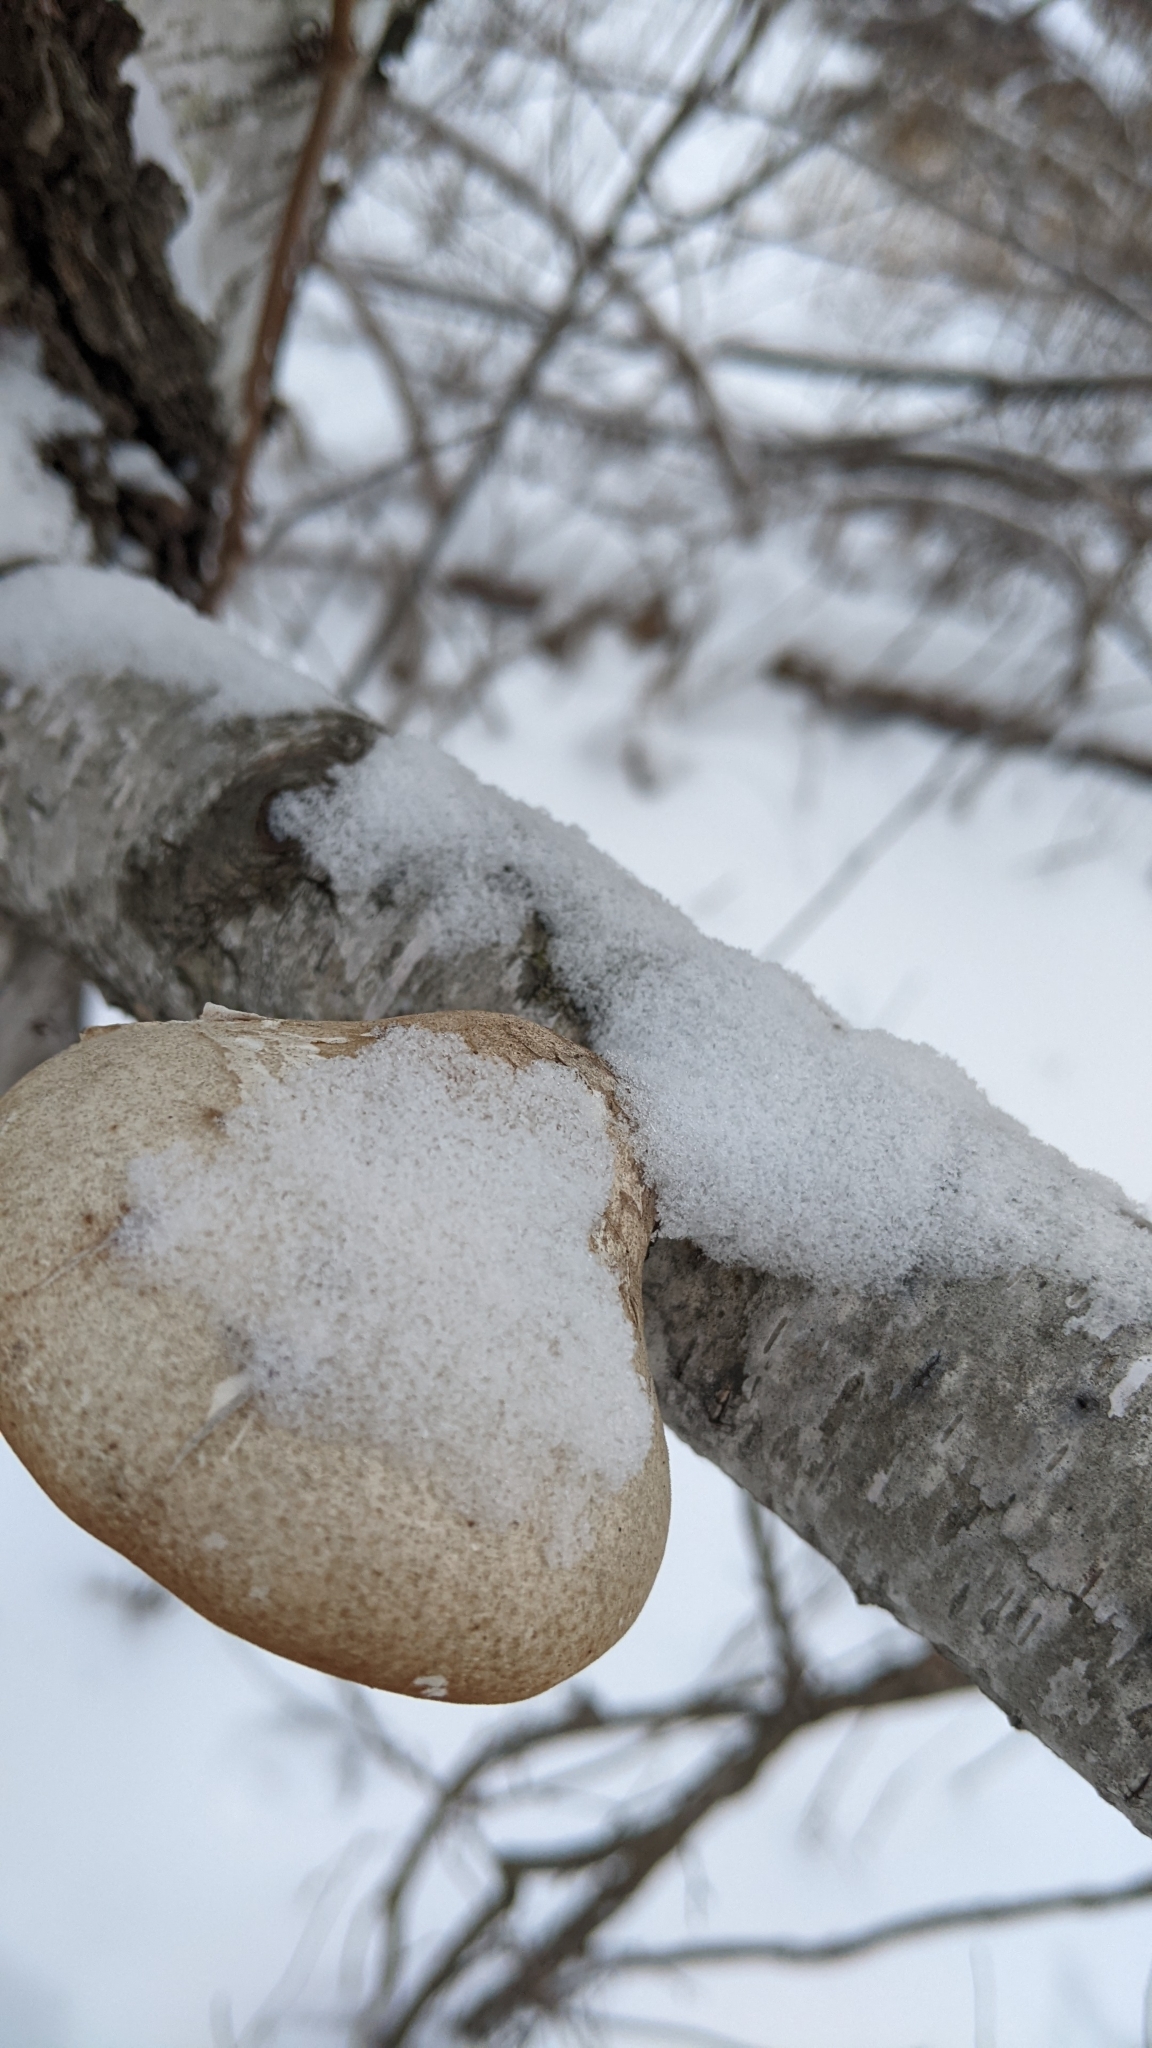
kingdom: Fungi
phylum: Basidiomycota
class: Agaricomycetes
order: Polyporales
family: Fomitopsidaceae
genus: Fomitopsis
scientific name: Fomitopsis betulina
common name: Birch polypore
